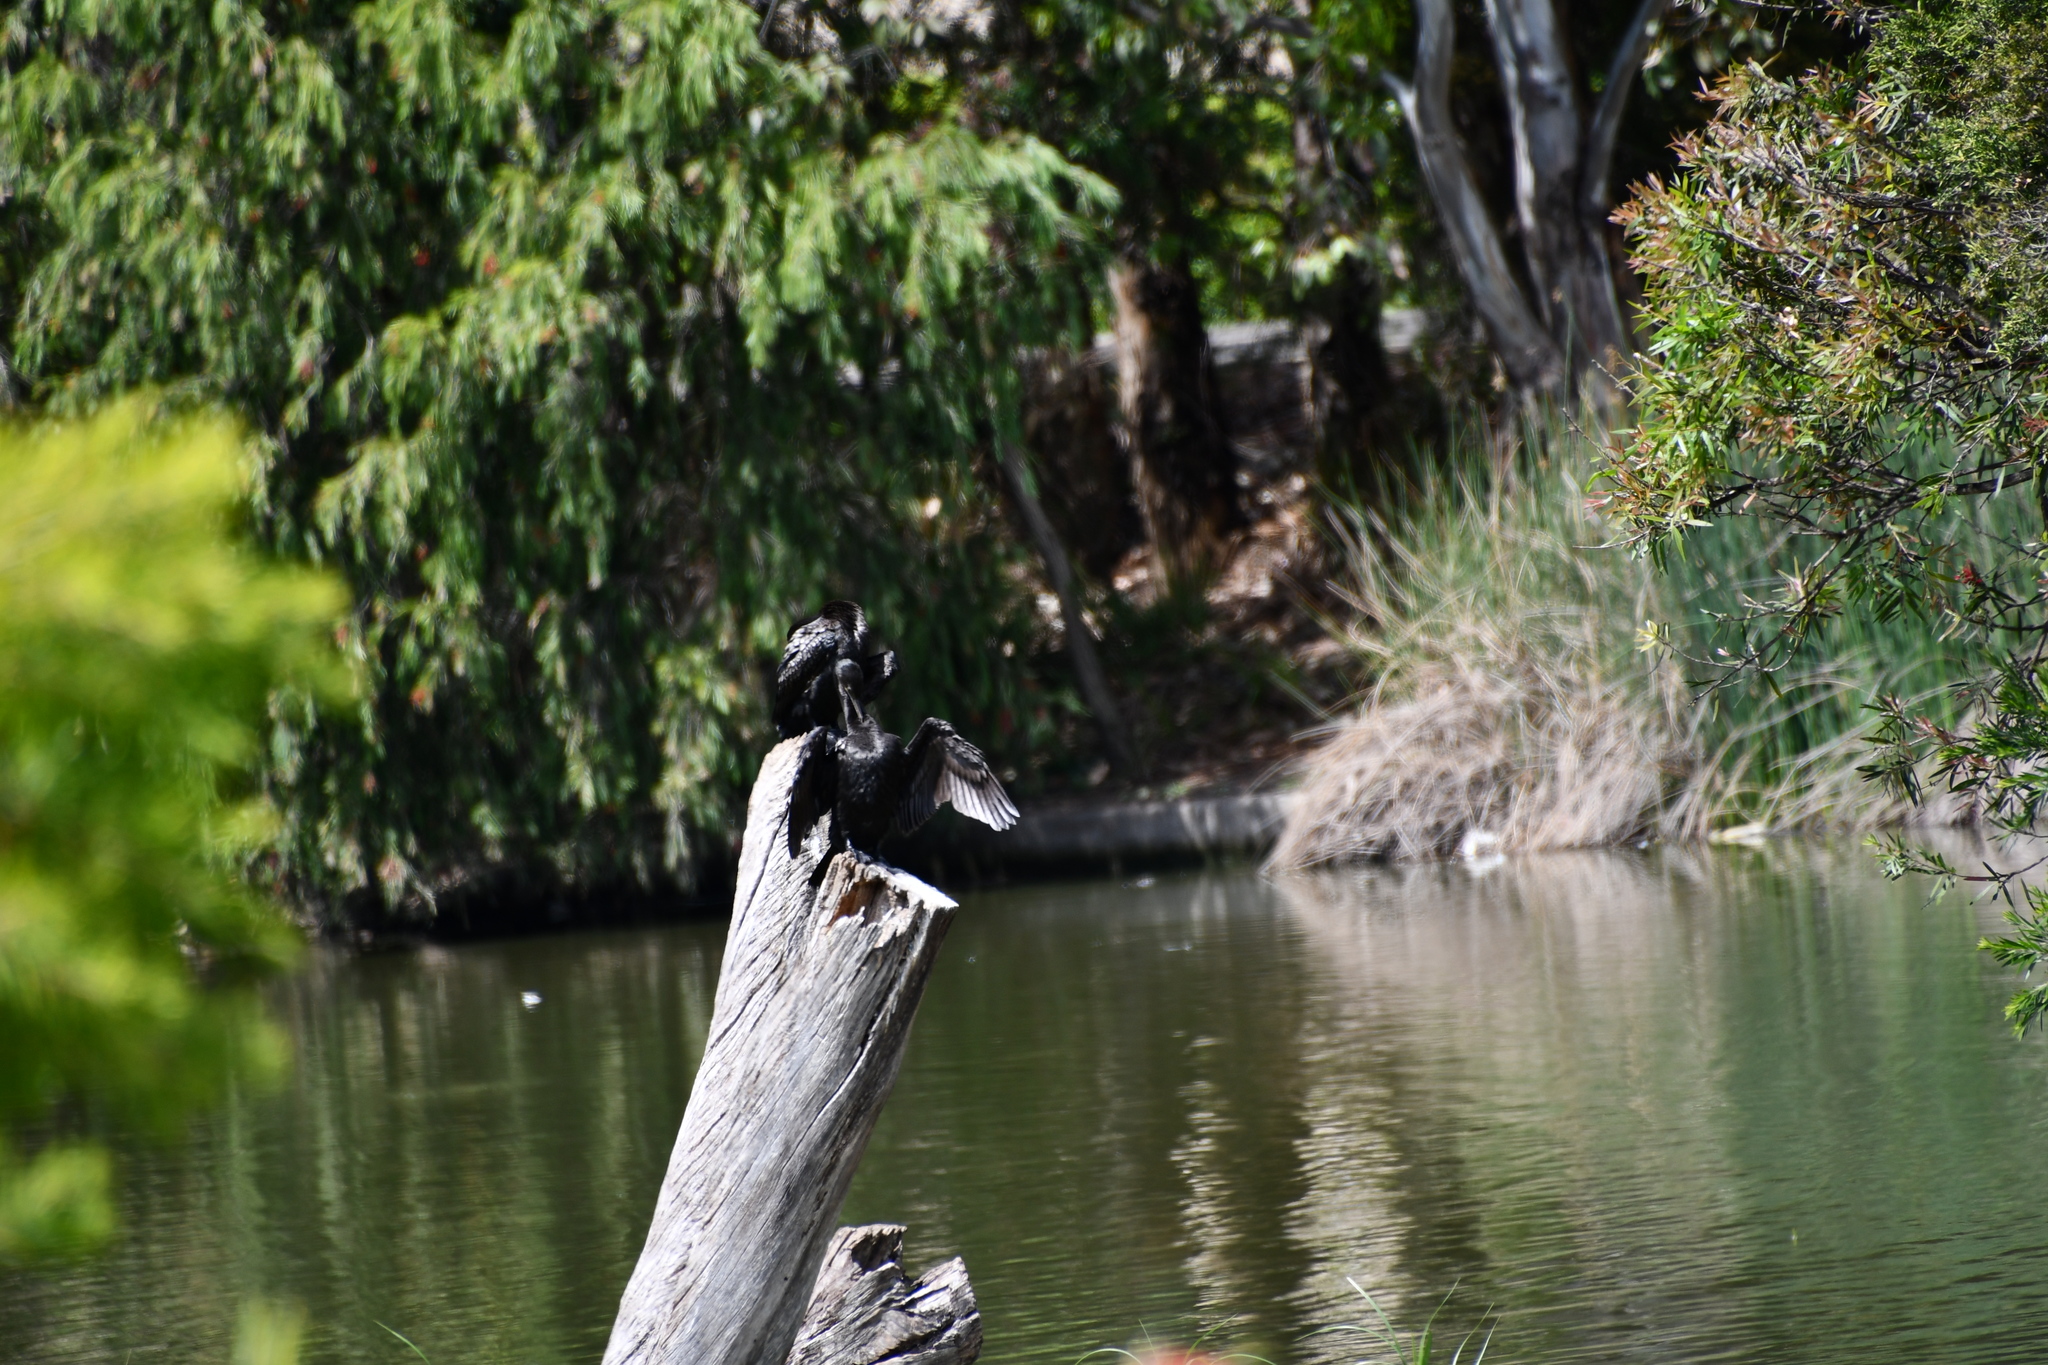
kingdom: Animalia
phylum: Chordata
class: Aves
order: Suliformes
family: Phalacrocoracidae
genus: Phalacrocorax
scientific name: Phalacrocorax sulcirostris
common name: Little black cormorant
